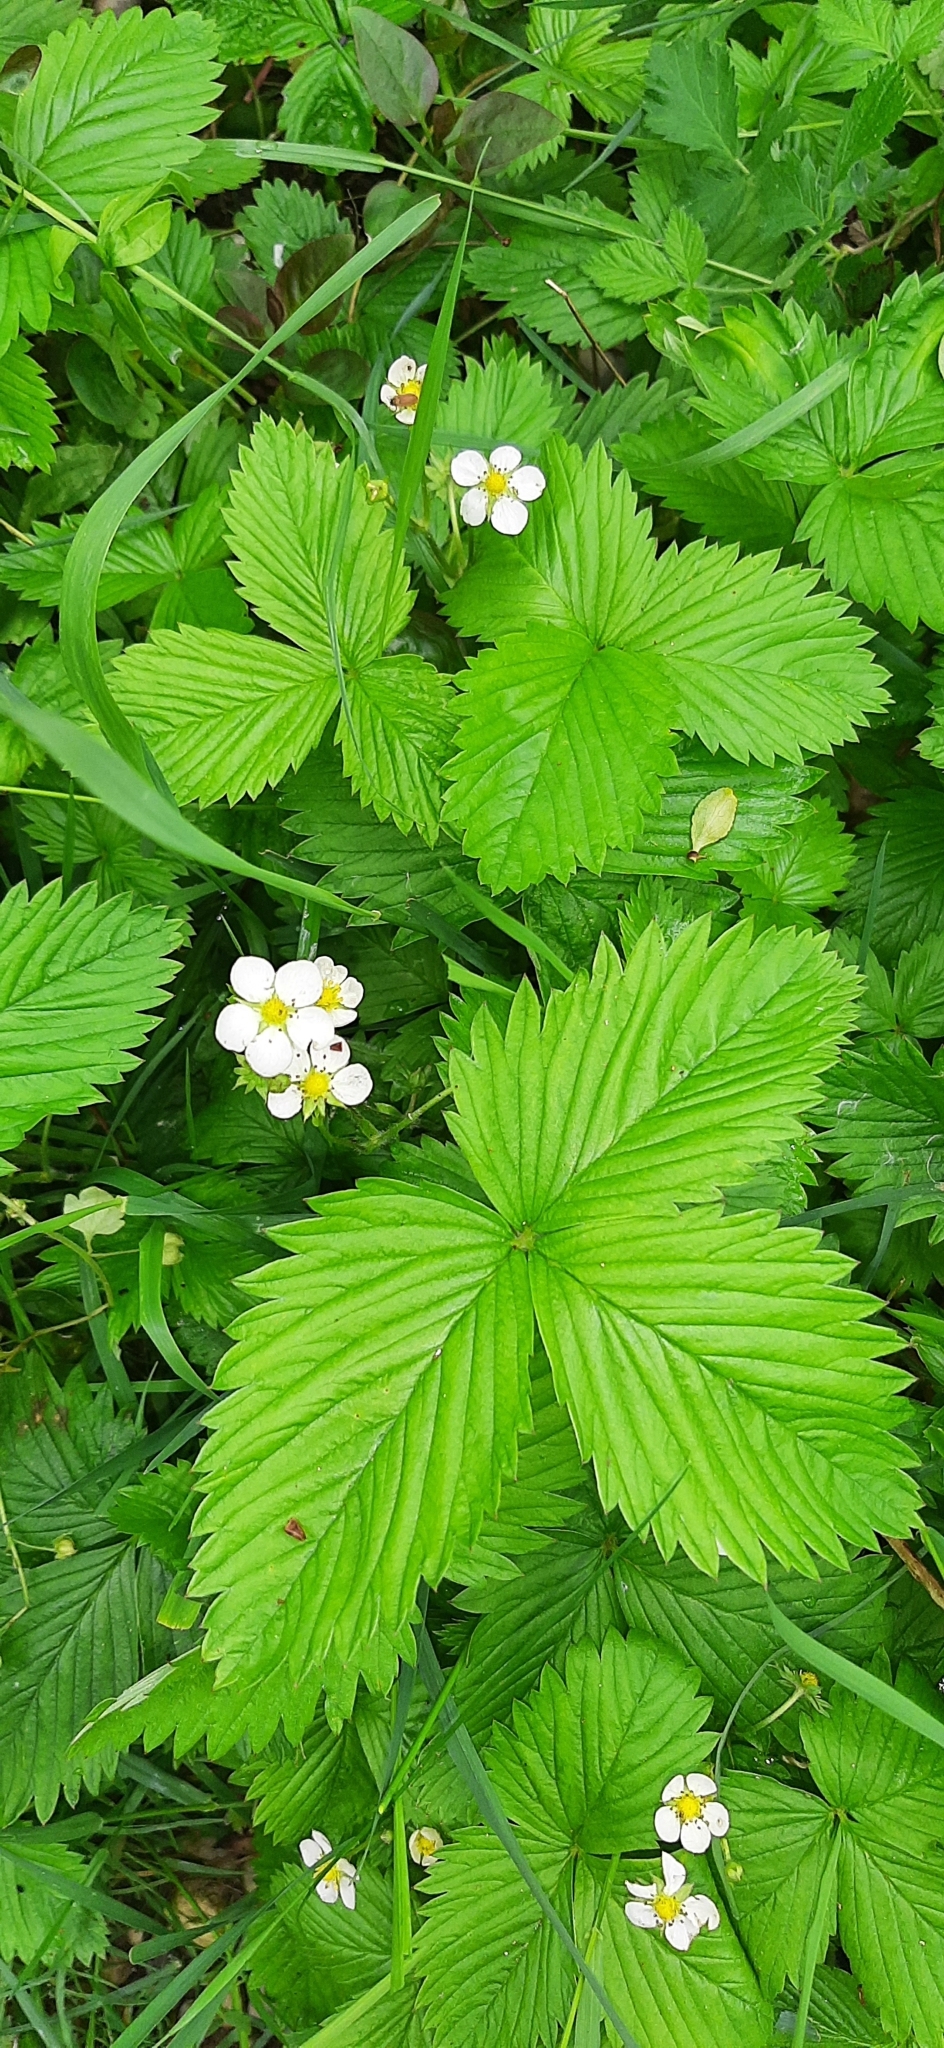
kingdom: Plantae
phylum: Tracheophyta
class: Magnoliopsida
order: Rosales
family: Rosaceae
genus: Fragaria
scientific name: Fragaria vesca
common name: Wild strawberry
